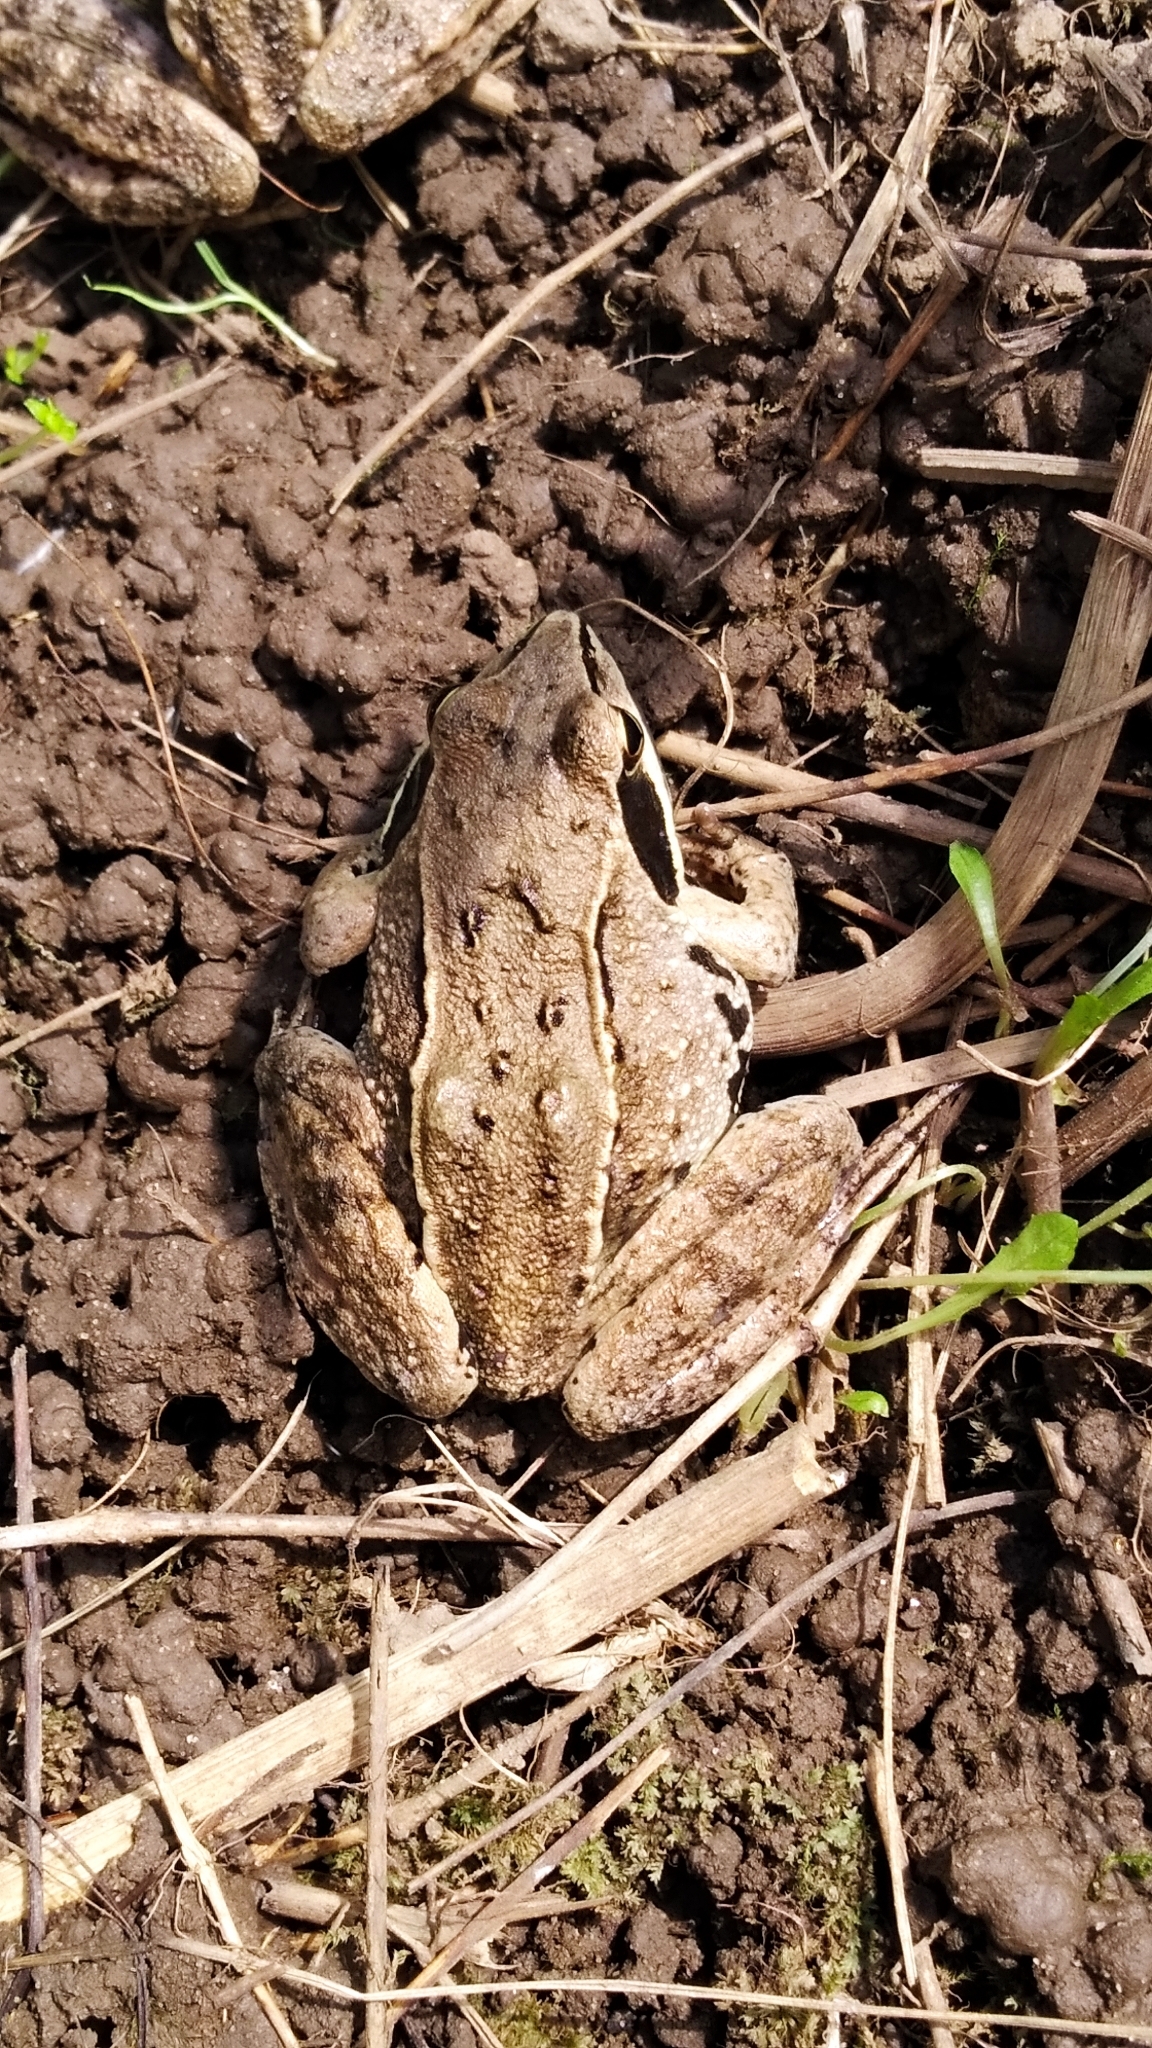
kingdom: Animalia
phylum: Chordata
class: Amphibia
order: Anura
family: Ranidae
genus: Rana
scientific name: Rana arvalis
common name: Moor frog
